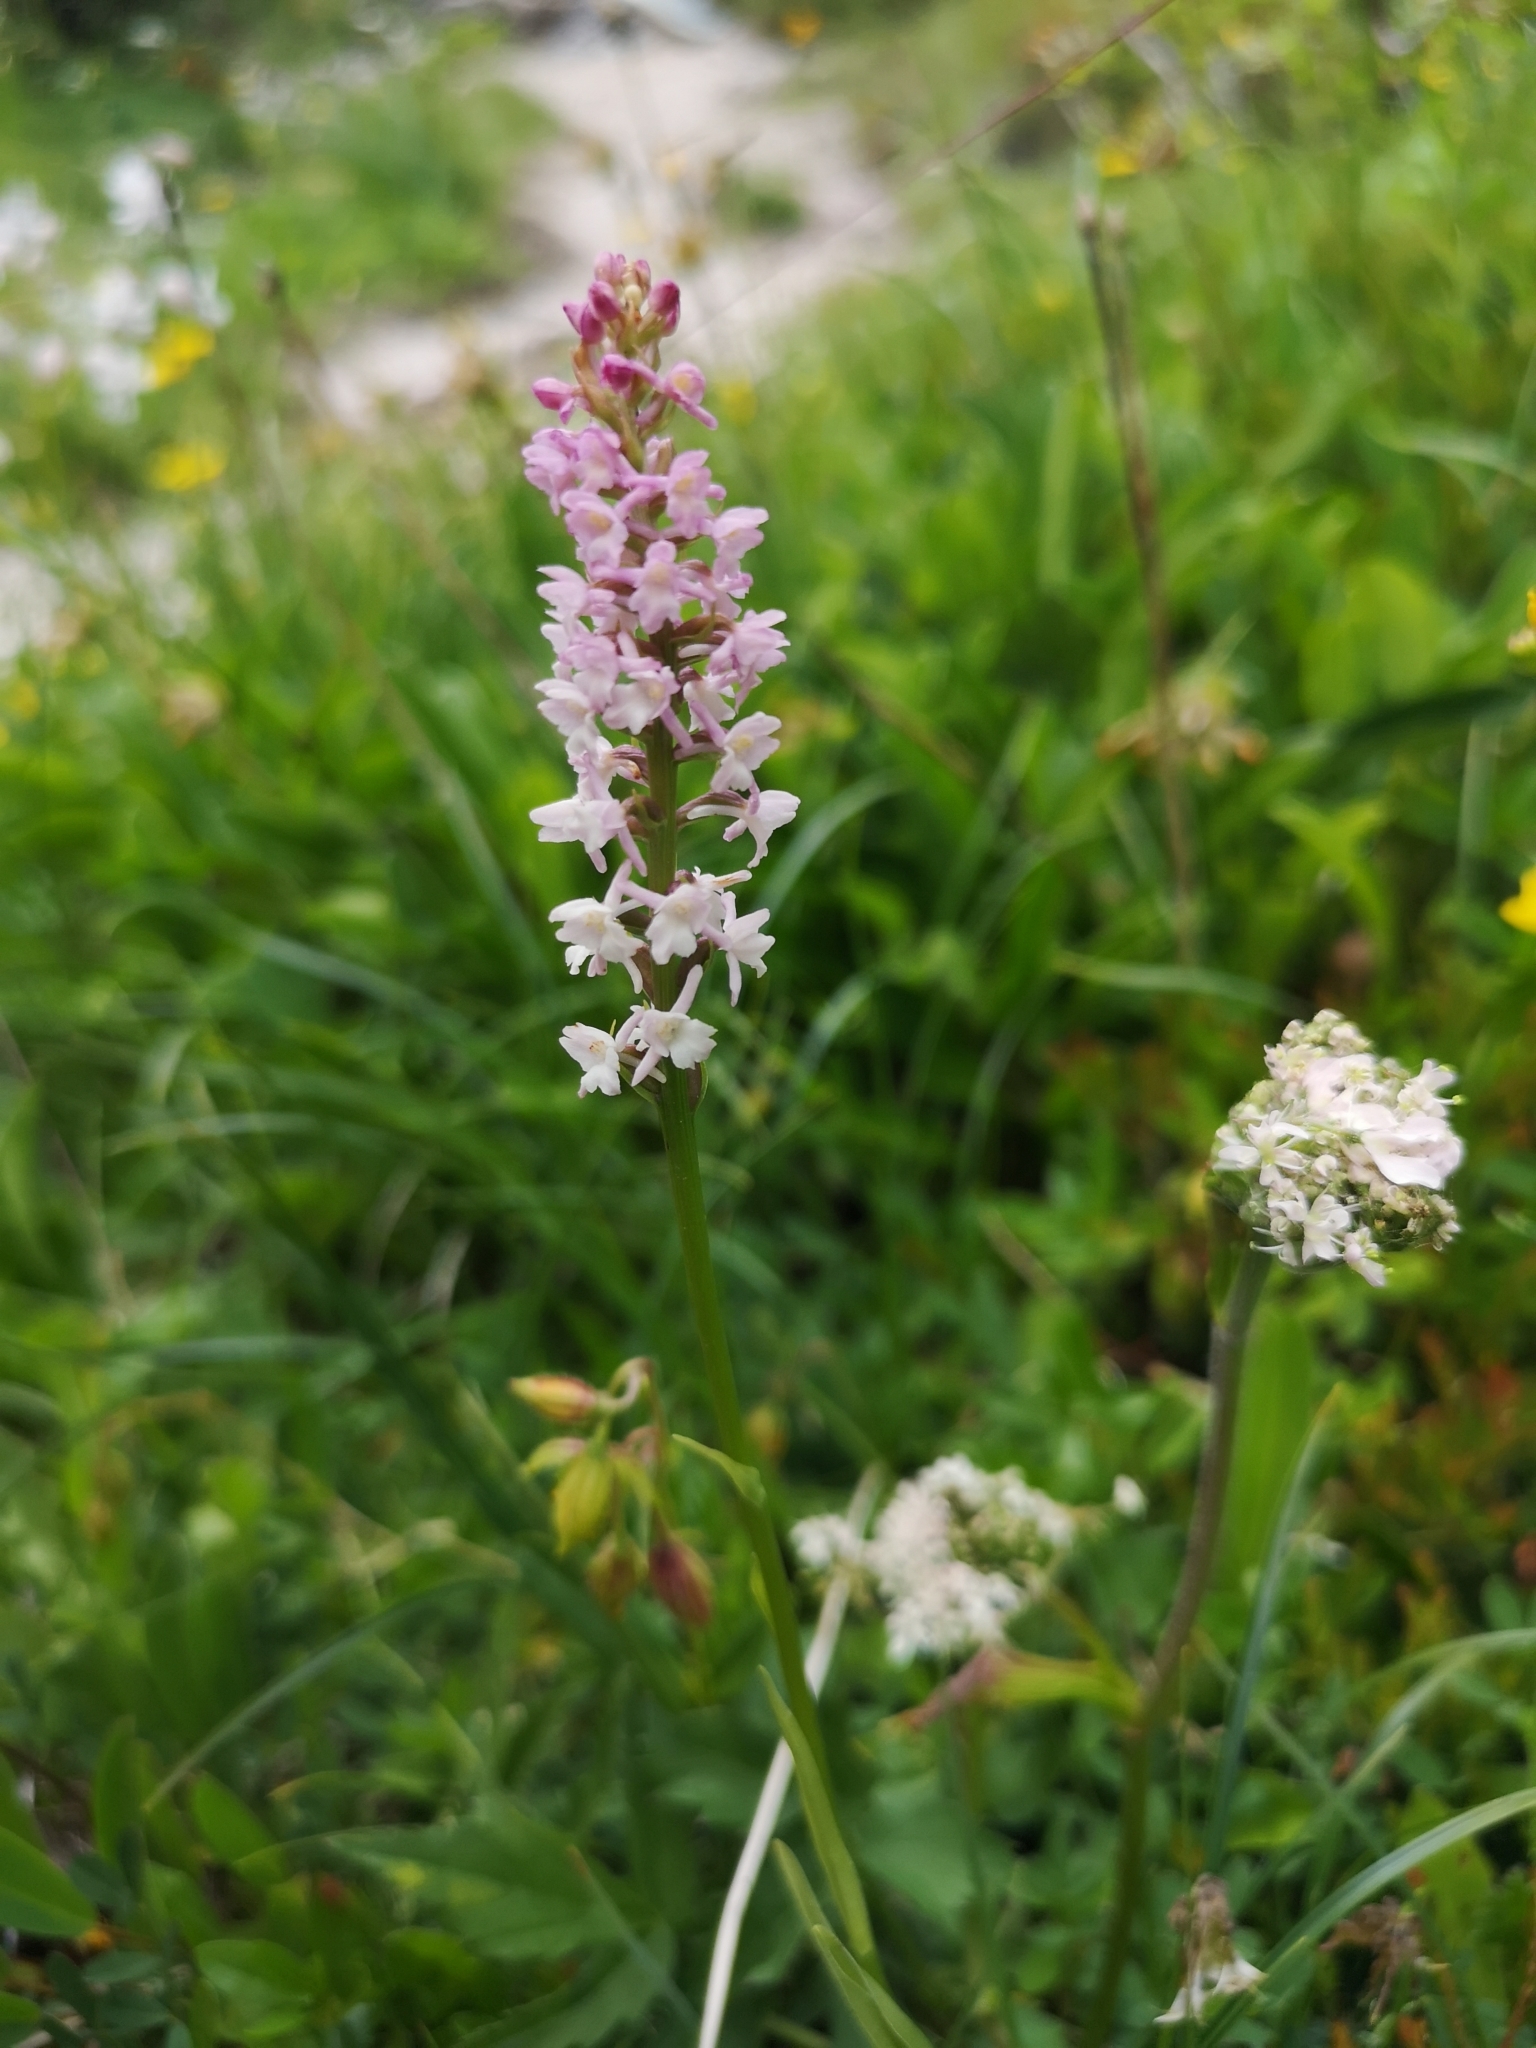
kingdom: Plantae
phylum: Tracheophyta
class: Liliopsida
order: Asparagales
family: Orchidaceae
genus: Gymnadenia
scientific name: Gymnadenia odoratissima
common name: Scented gymnadenia
